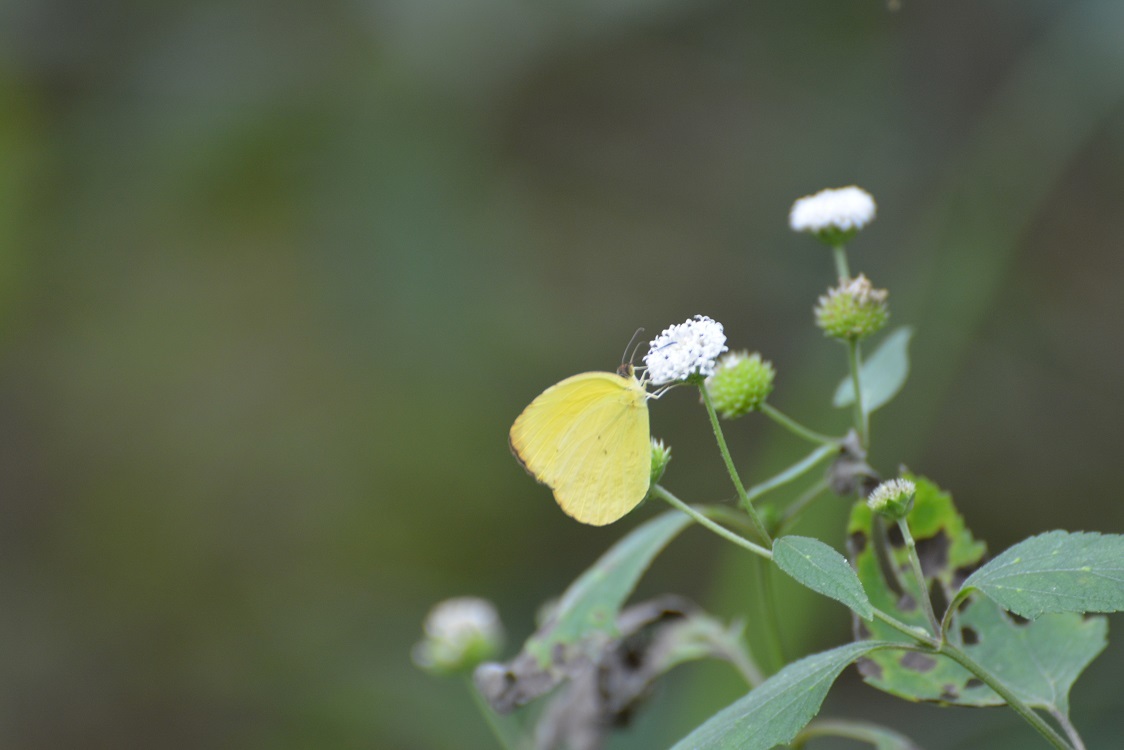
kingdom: Animalia
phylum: Arthropoda
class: Insecta
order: Lepidoptera
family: Pieridae
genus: Pyrisitia
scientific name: Pyrisitia westwoodi
